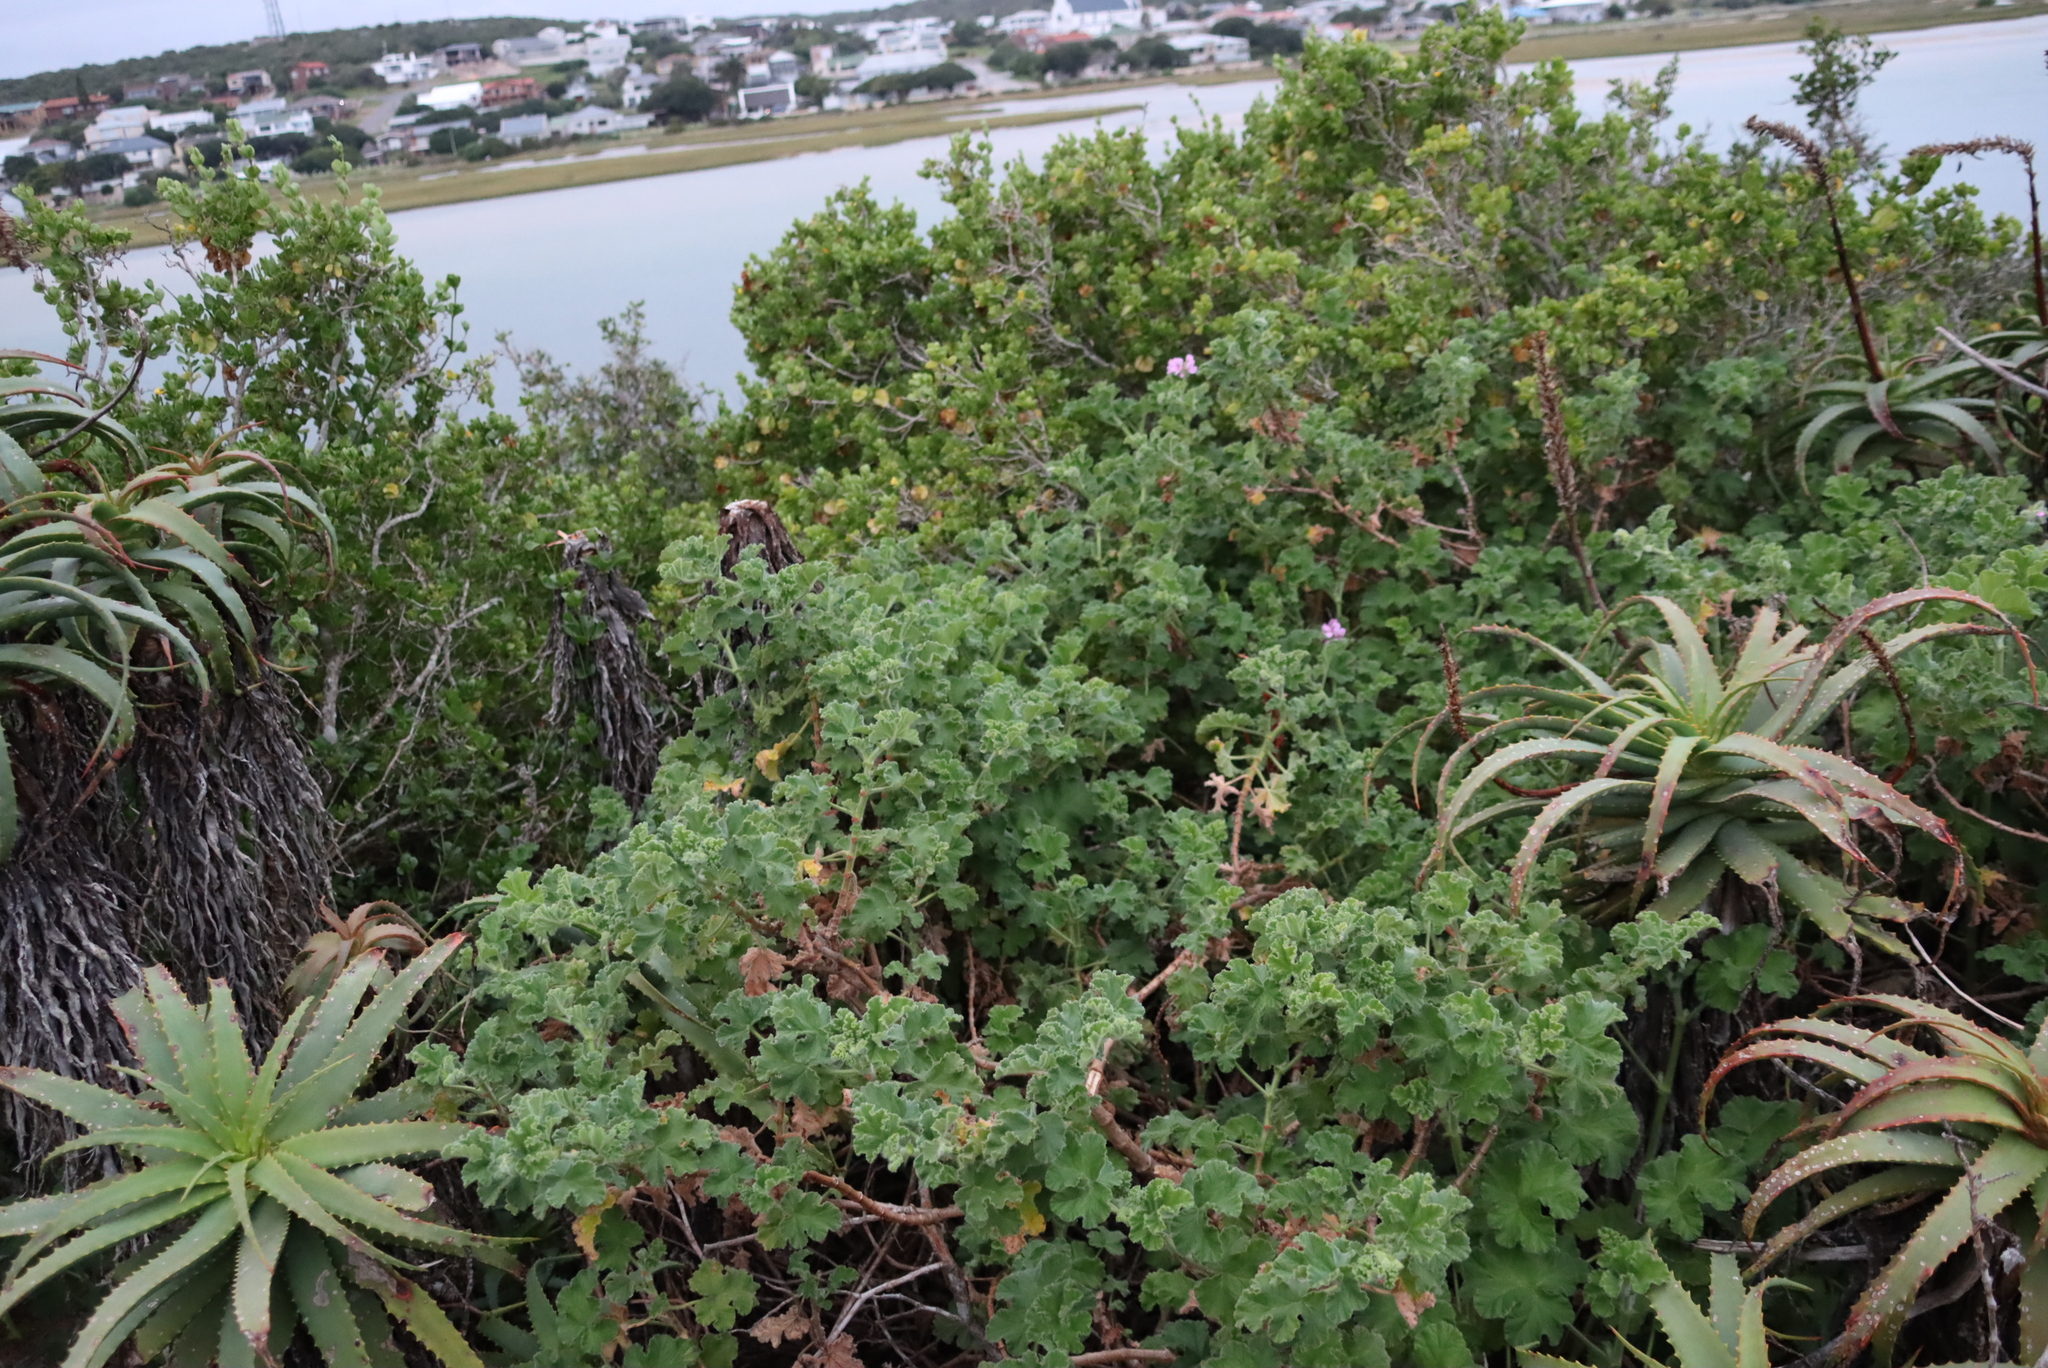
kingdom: Plantae
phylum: Tracheophyta
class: Magnoliopsida
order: Geraniales
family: Geraniaceae
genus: Pelargonium
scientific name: Pelargonium capitatum
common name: Rose scented geranium
